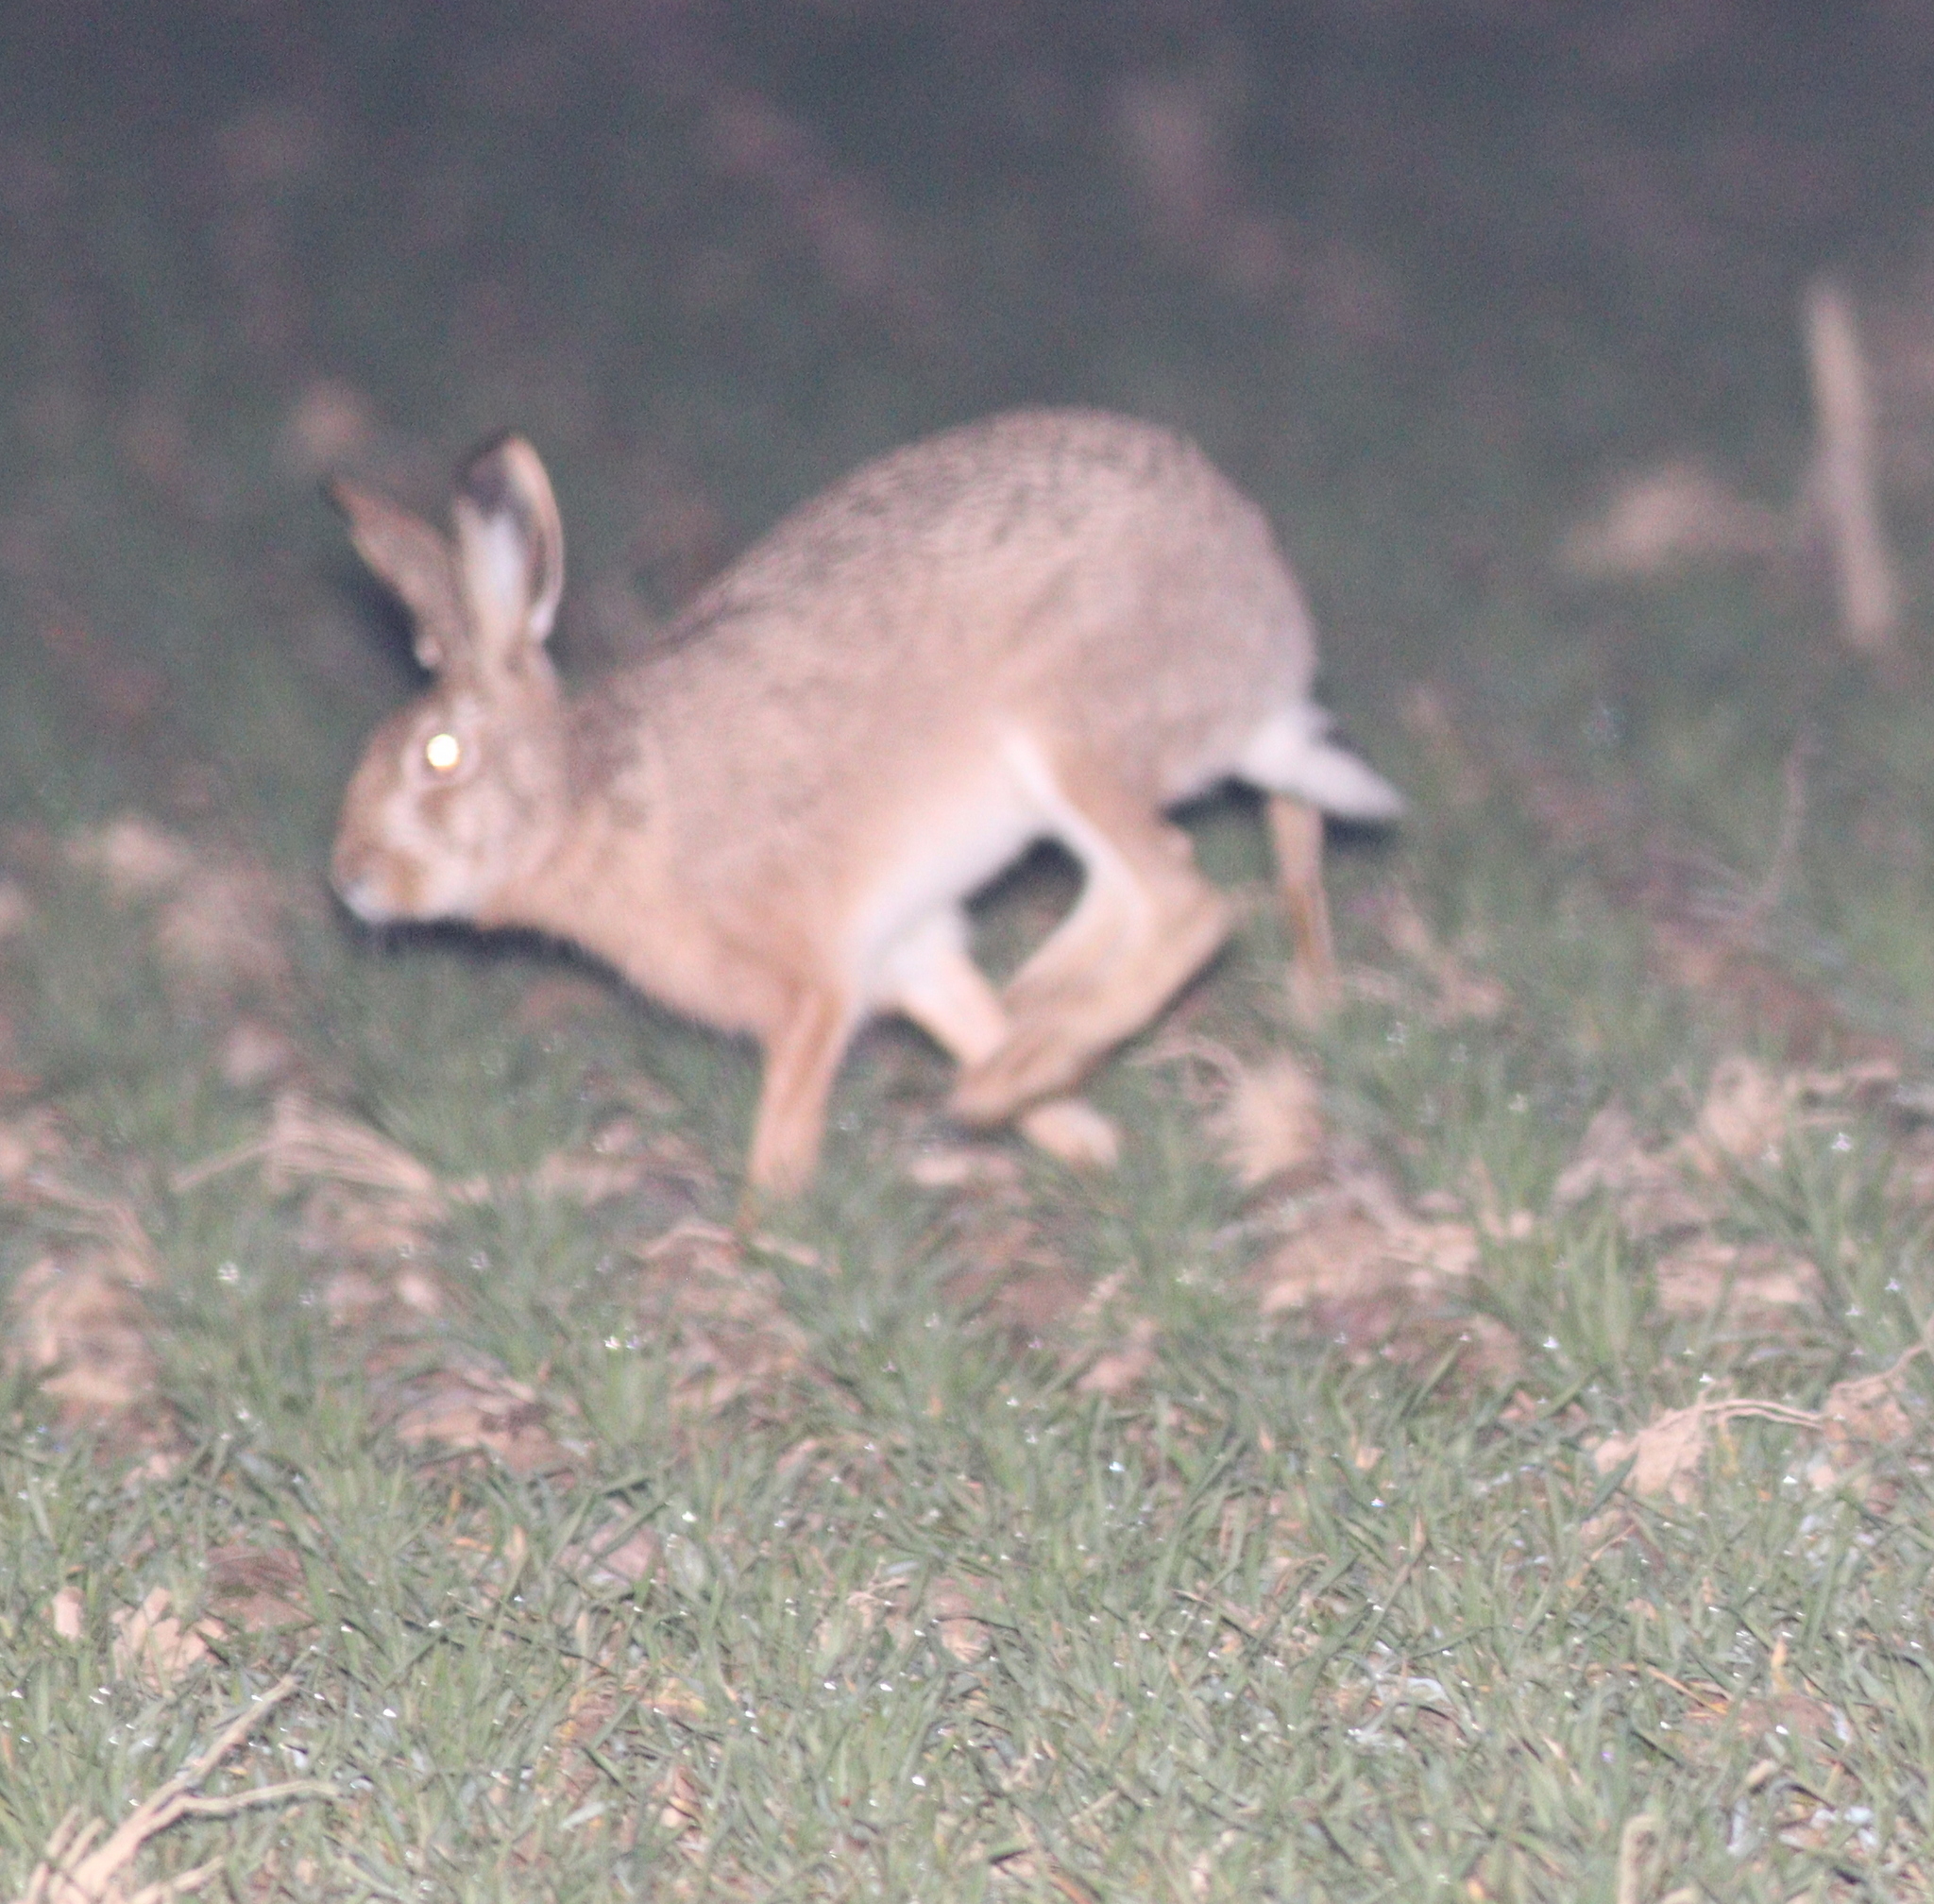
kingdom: Animalia
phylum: Chordata
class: Mammalia
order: Lagomorpha
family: Leporidae
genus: Lepus
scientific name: Lepus europaeus
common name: European hare
